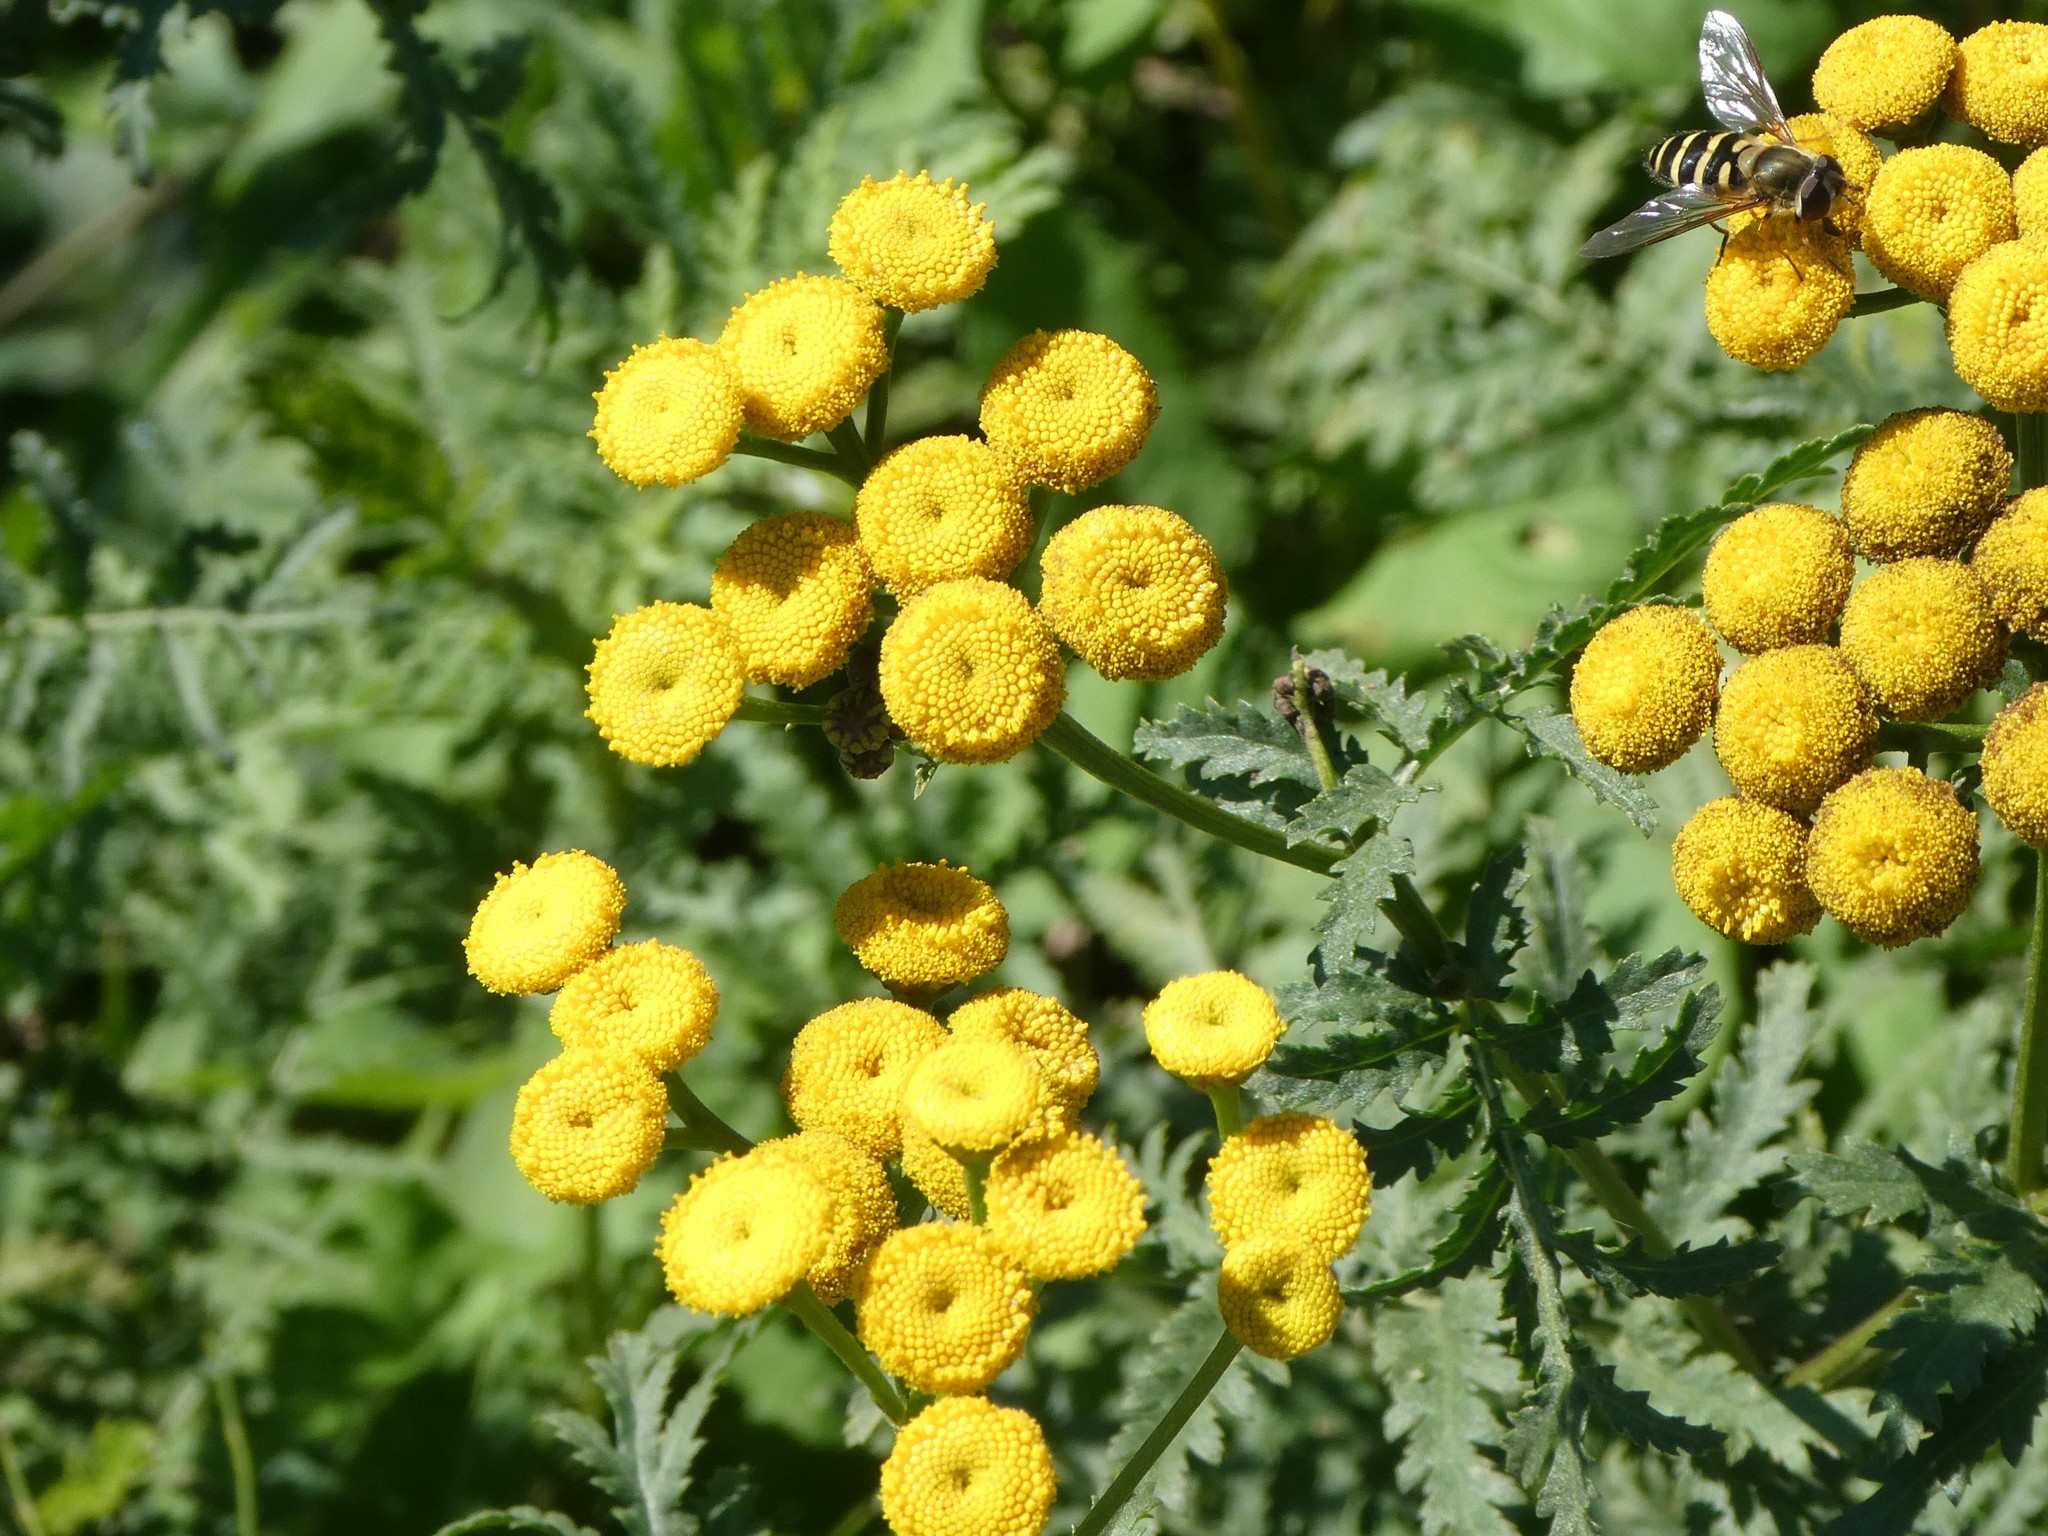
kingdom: Plantae
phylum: Tracheophyta
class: Magnoliopsida
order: Asterales
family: Asteraceae
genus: Tanacetum
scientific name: Tanacetum vulgare
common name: Common tansy
